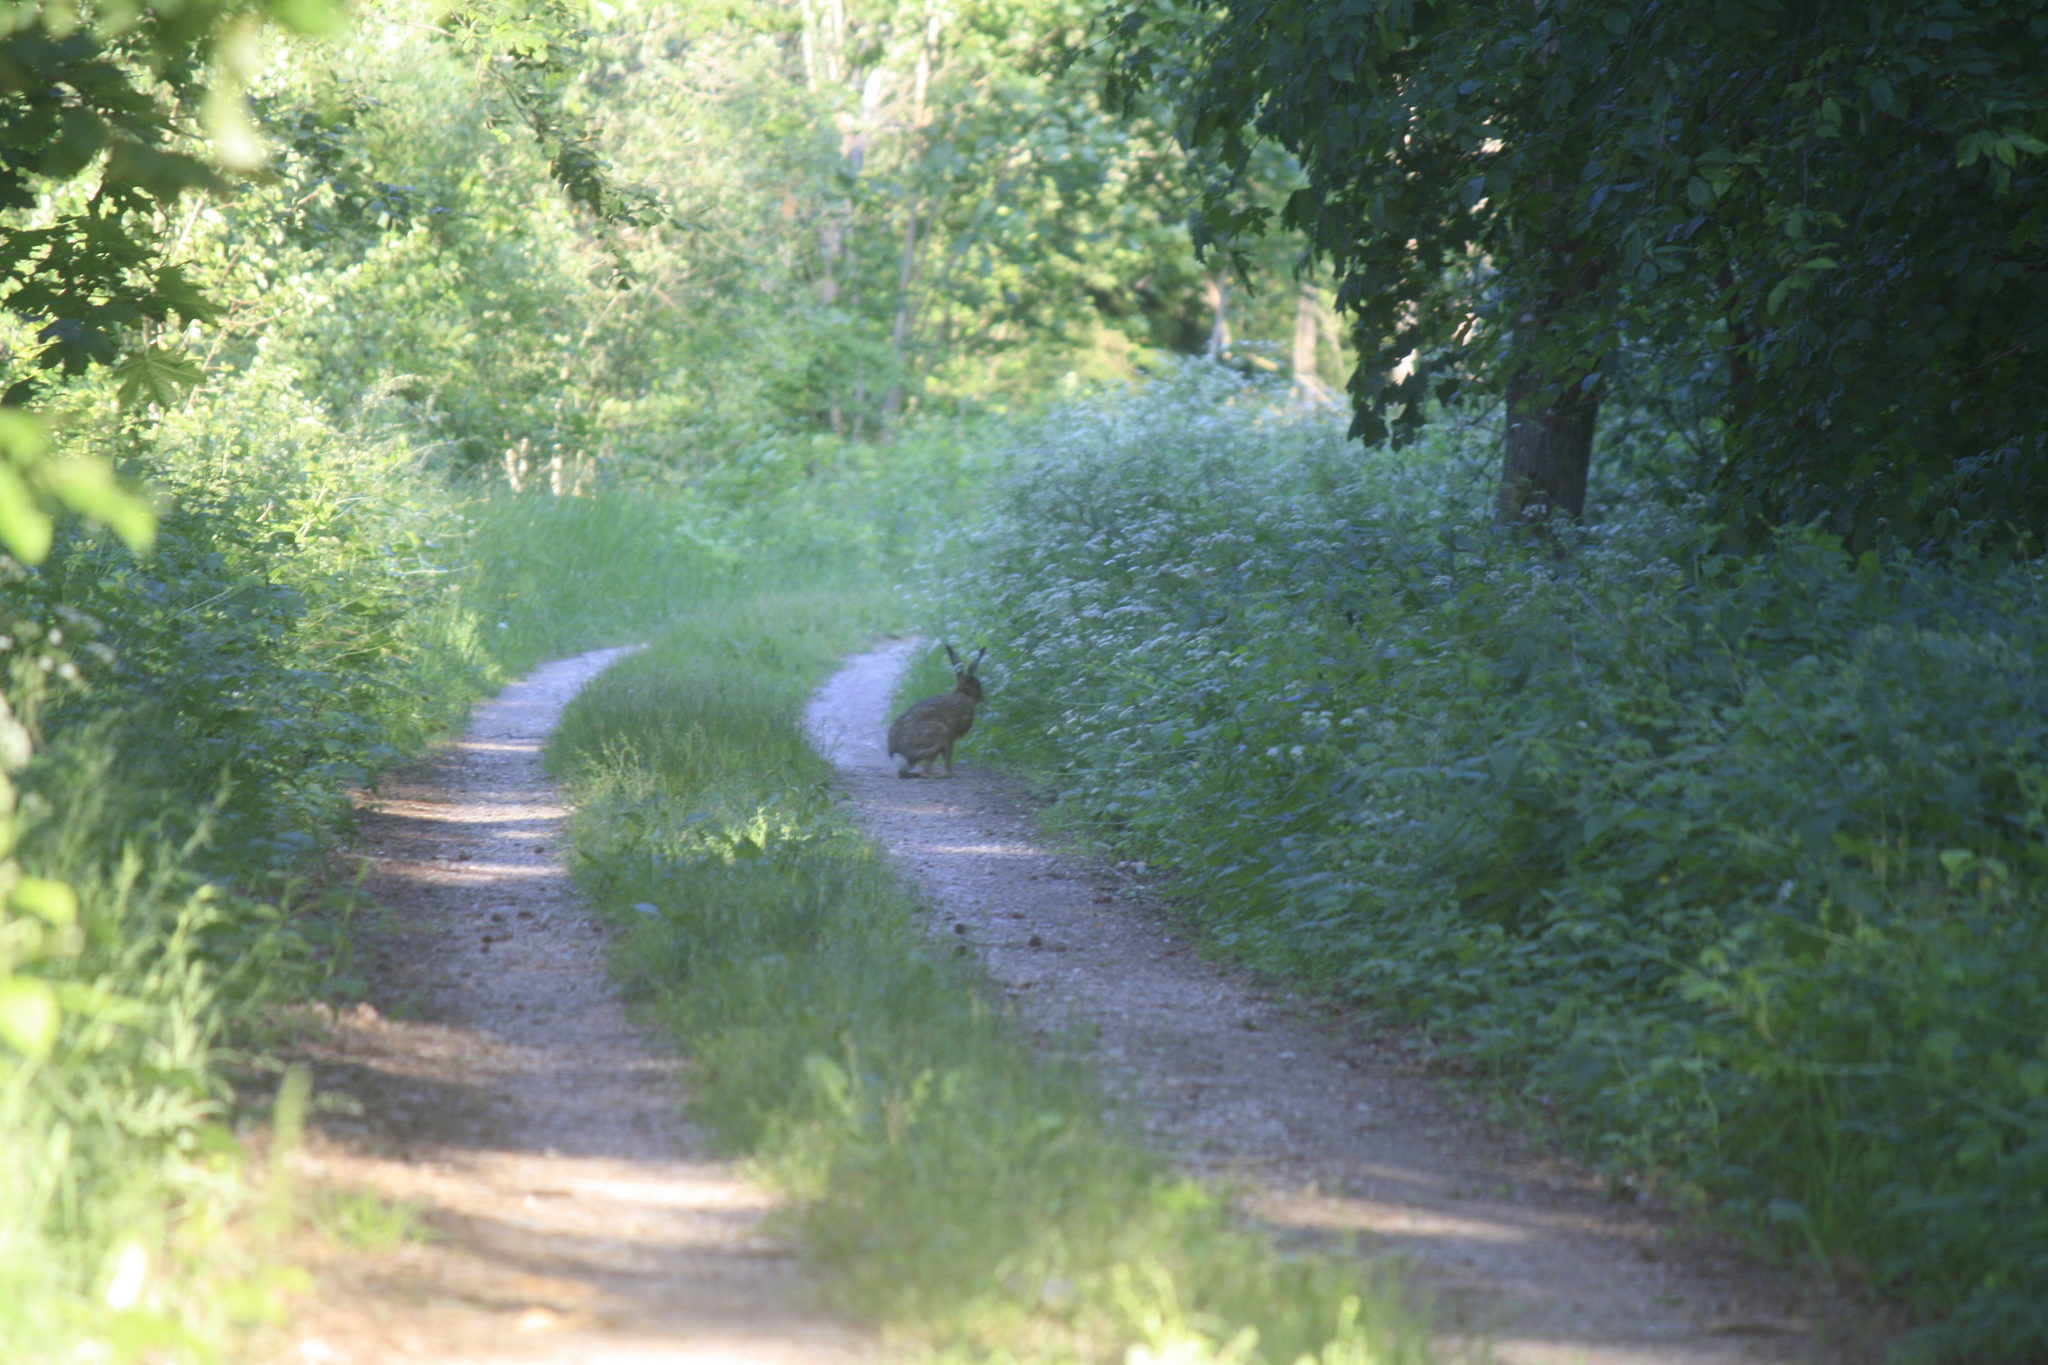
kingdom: Animalia
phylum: Chordata
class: Mammalia
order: Lagomorpha
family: Leporidae
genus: Lepus
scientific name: Lepus europaeus
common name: European hare
